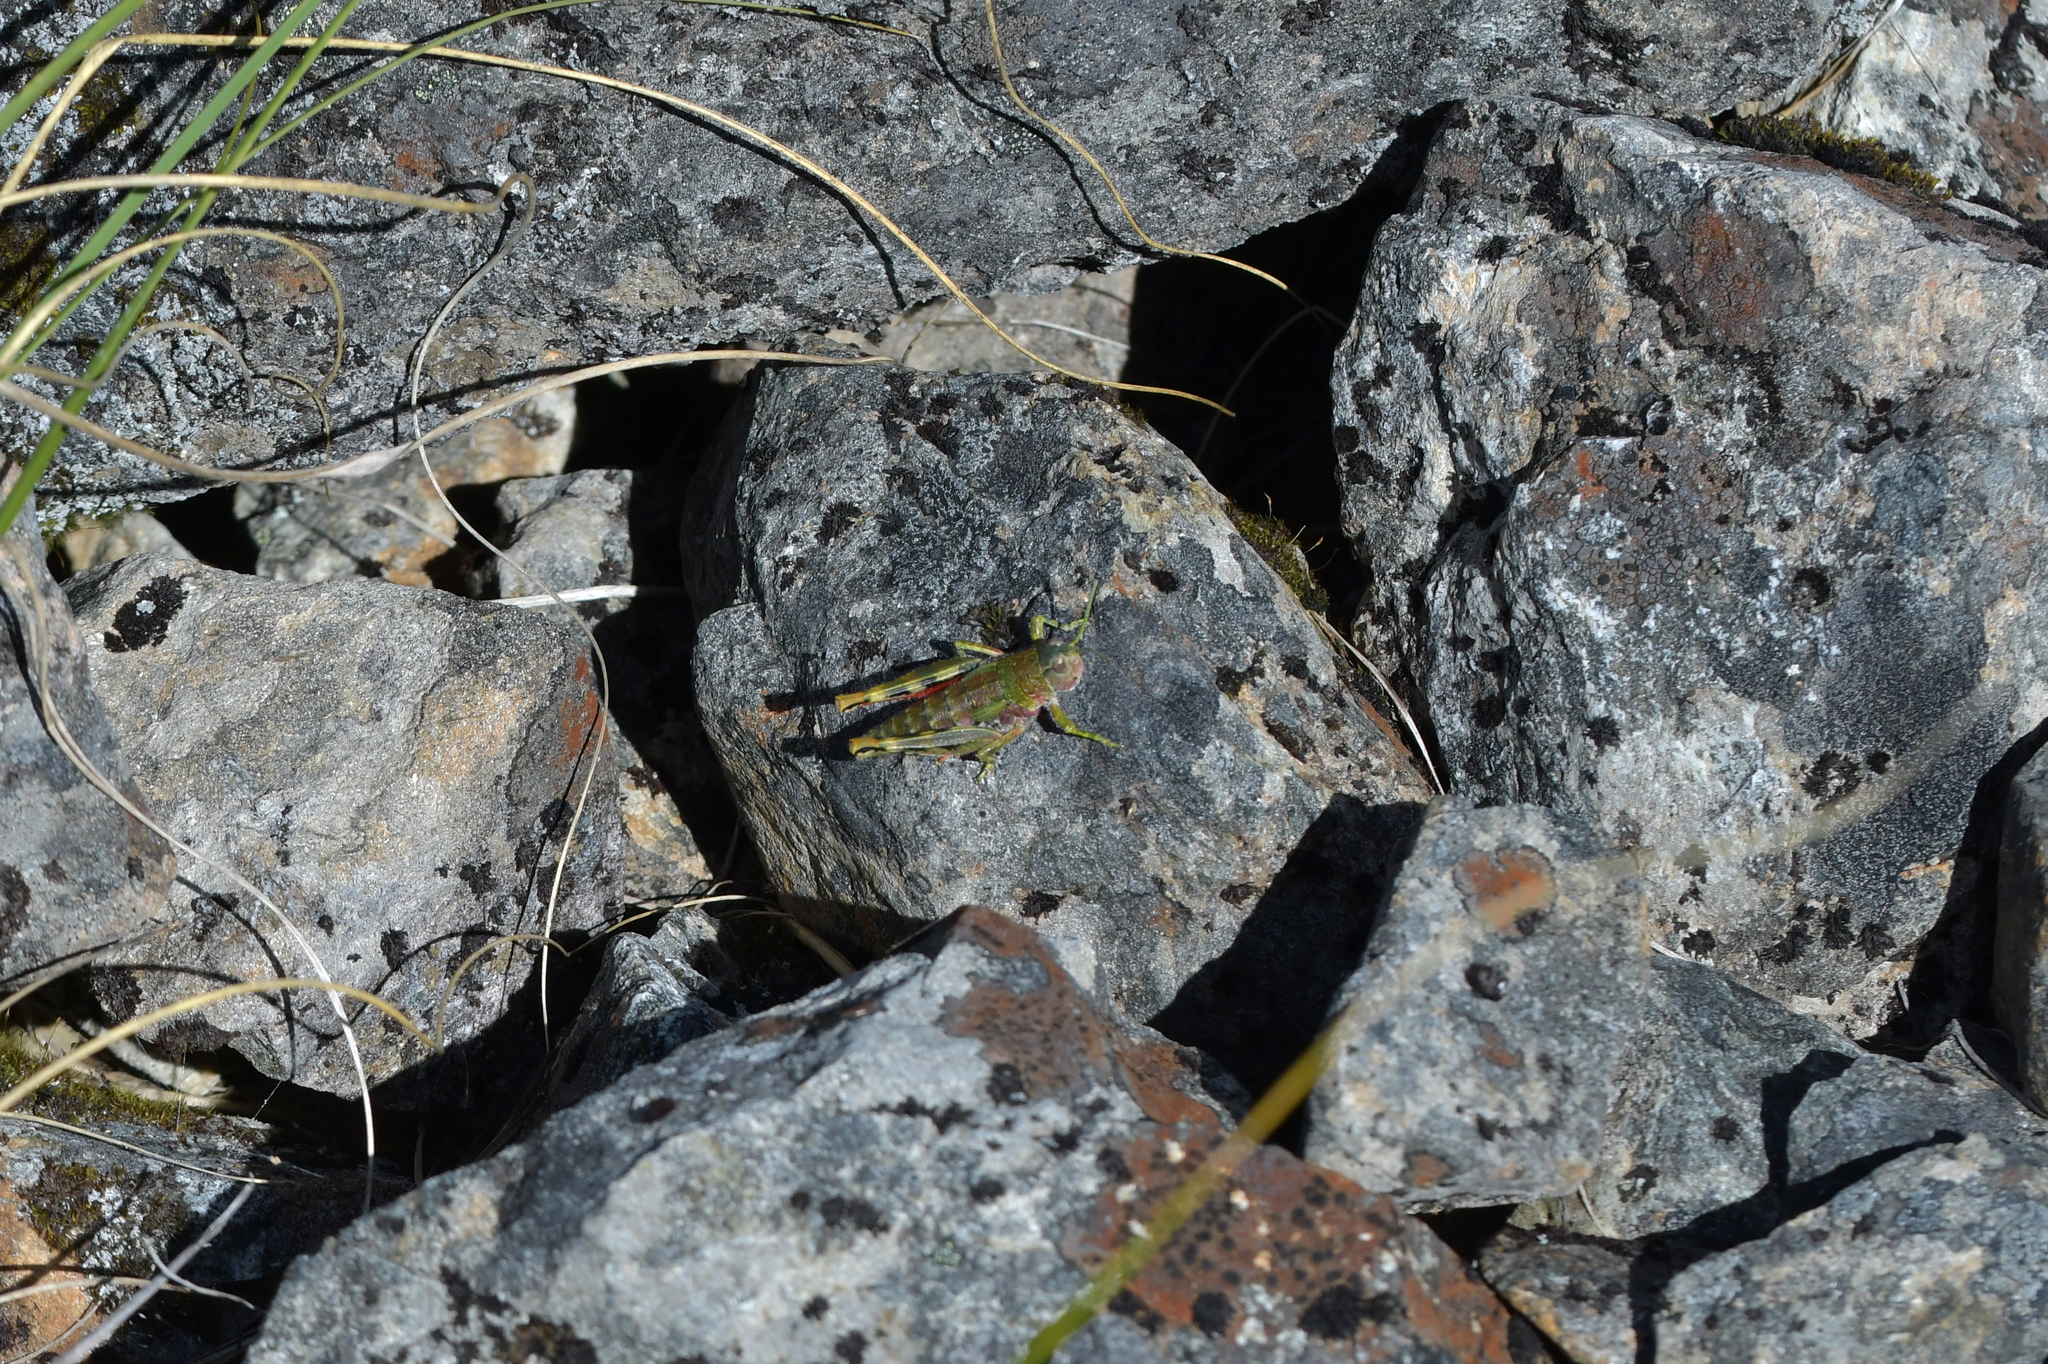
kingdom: Animalia
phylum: Arthropoda
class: Insecta
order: Orthoptera
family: Acrididae
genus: Sigaus
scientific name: Sigaus
